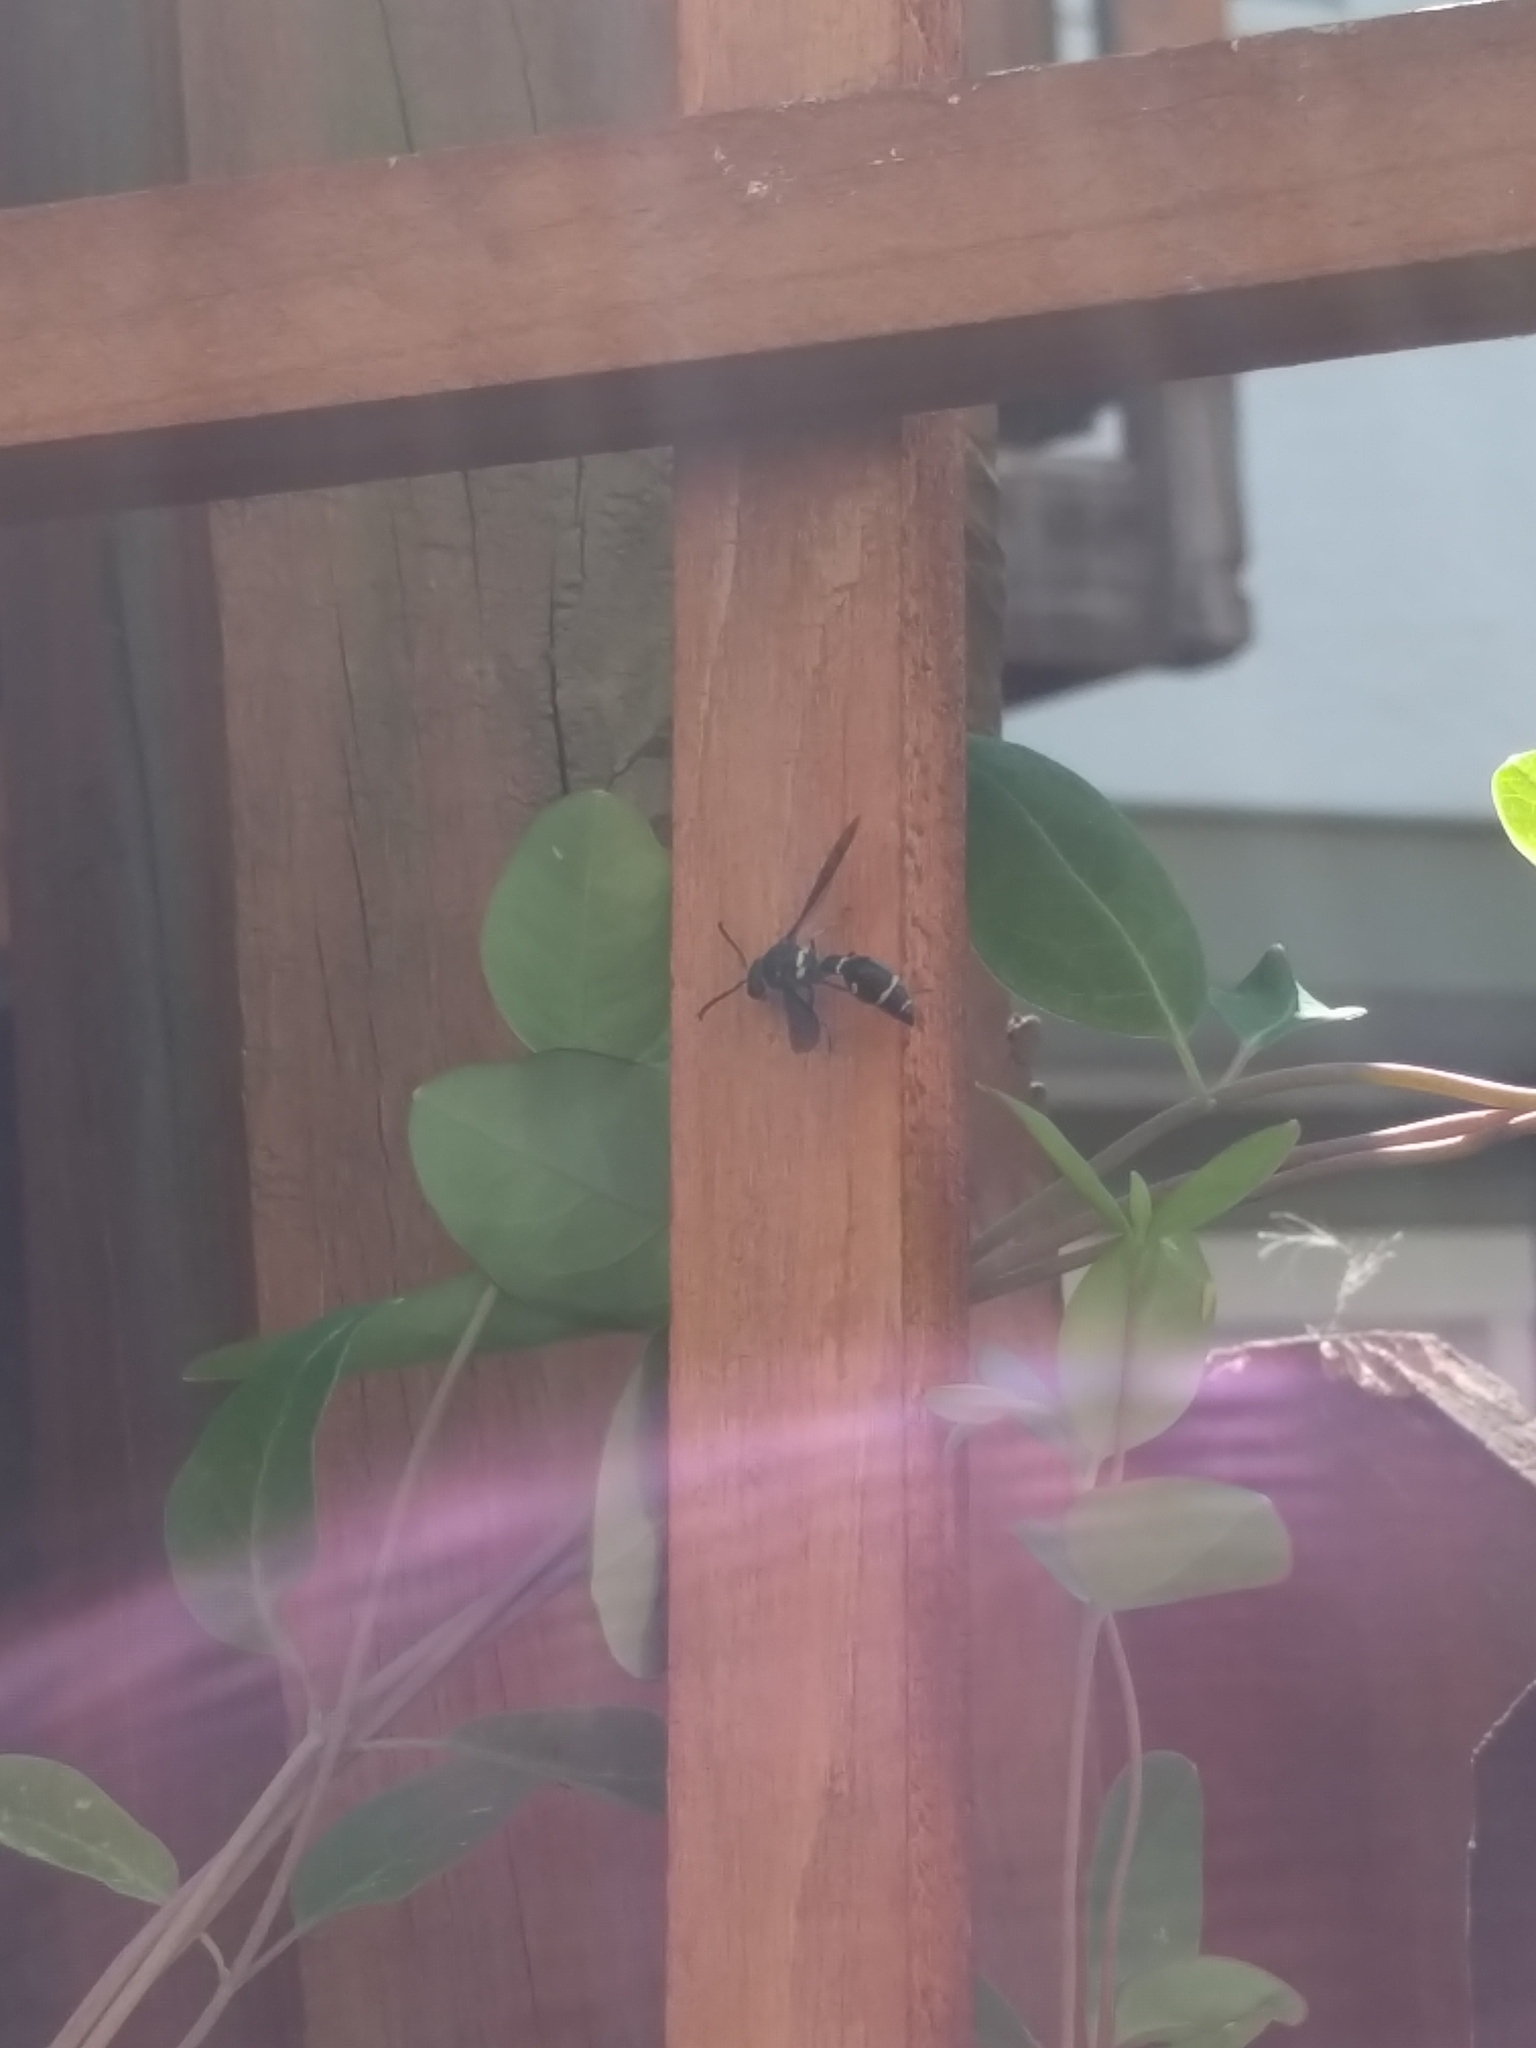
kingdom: Animalia
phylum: Arthropoda
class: Insecta
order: Hymenoptera
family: Vespidae
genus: Eumenes
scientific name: Eumenes fraternus
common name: Fraternal potter wasp
